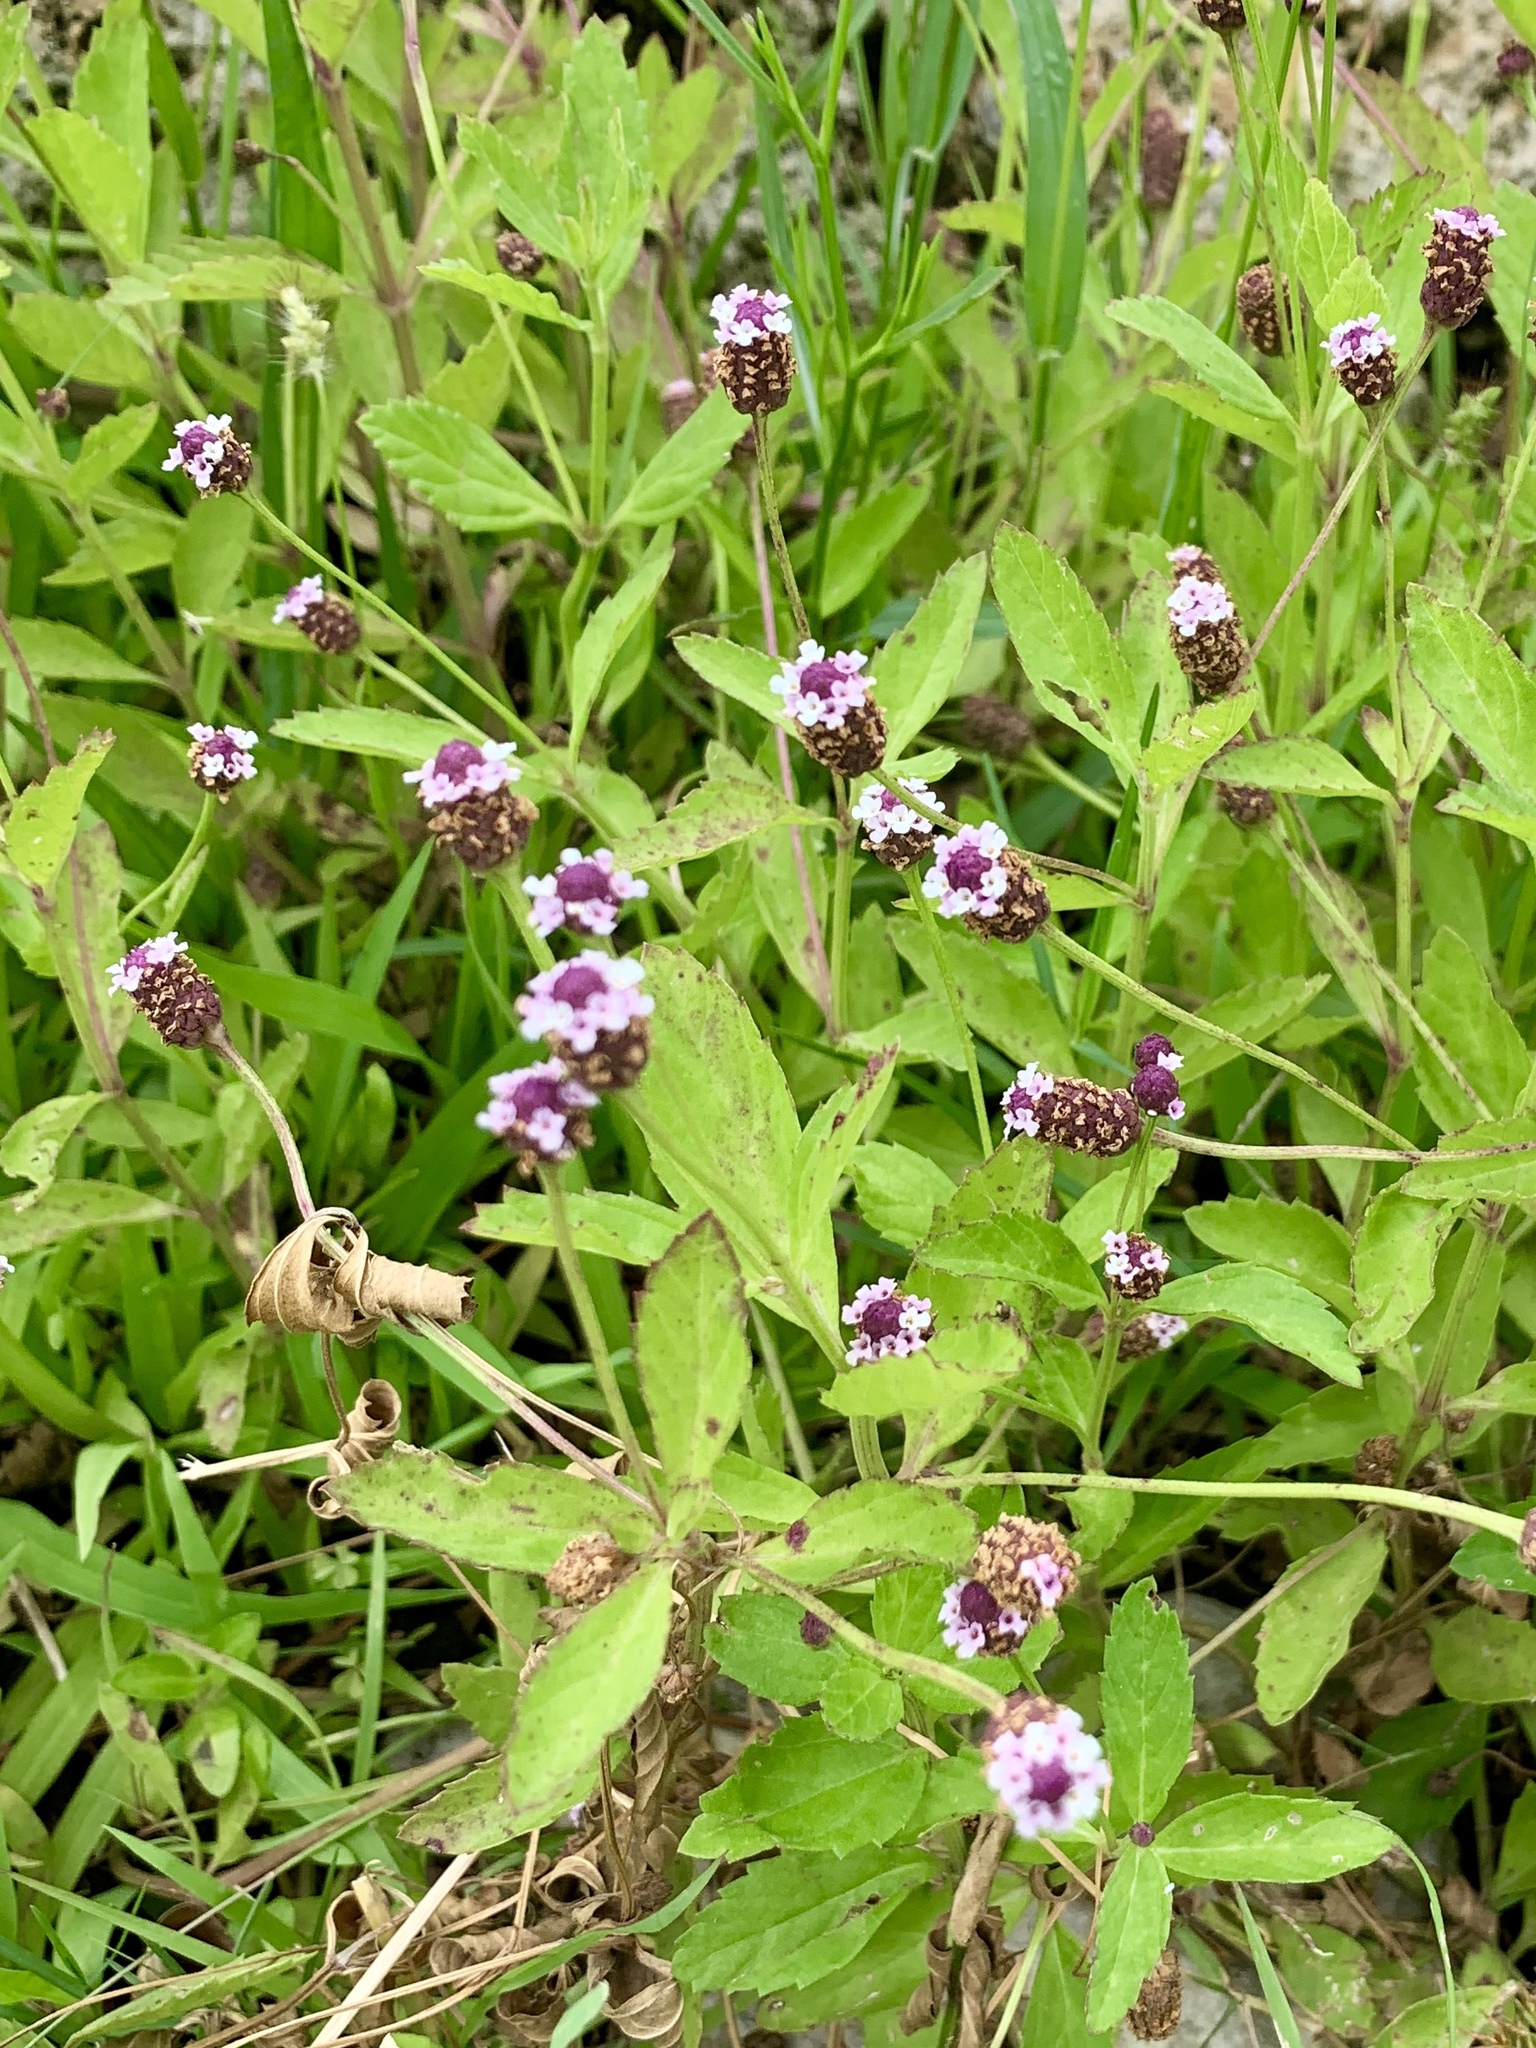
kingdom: Plantae
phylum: Tracheophyta
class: Magnoliopsida
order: Lamiales
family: Verbenaceae
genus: Phyla
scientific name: Phyla lanceolata
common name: Northern fogfruit
